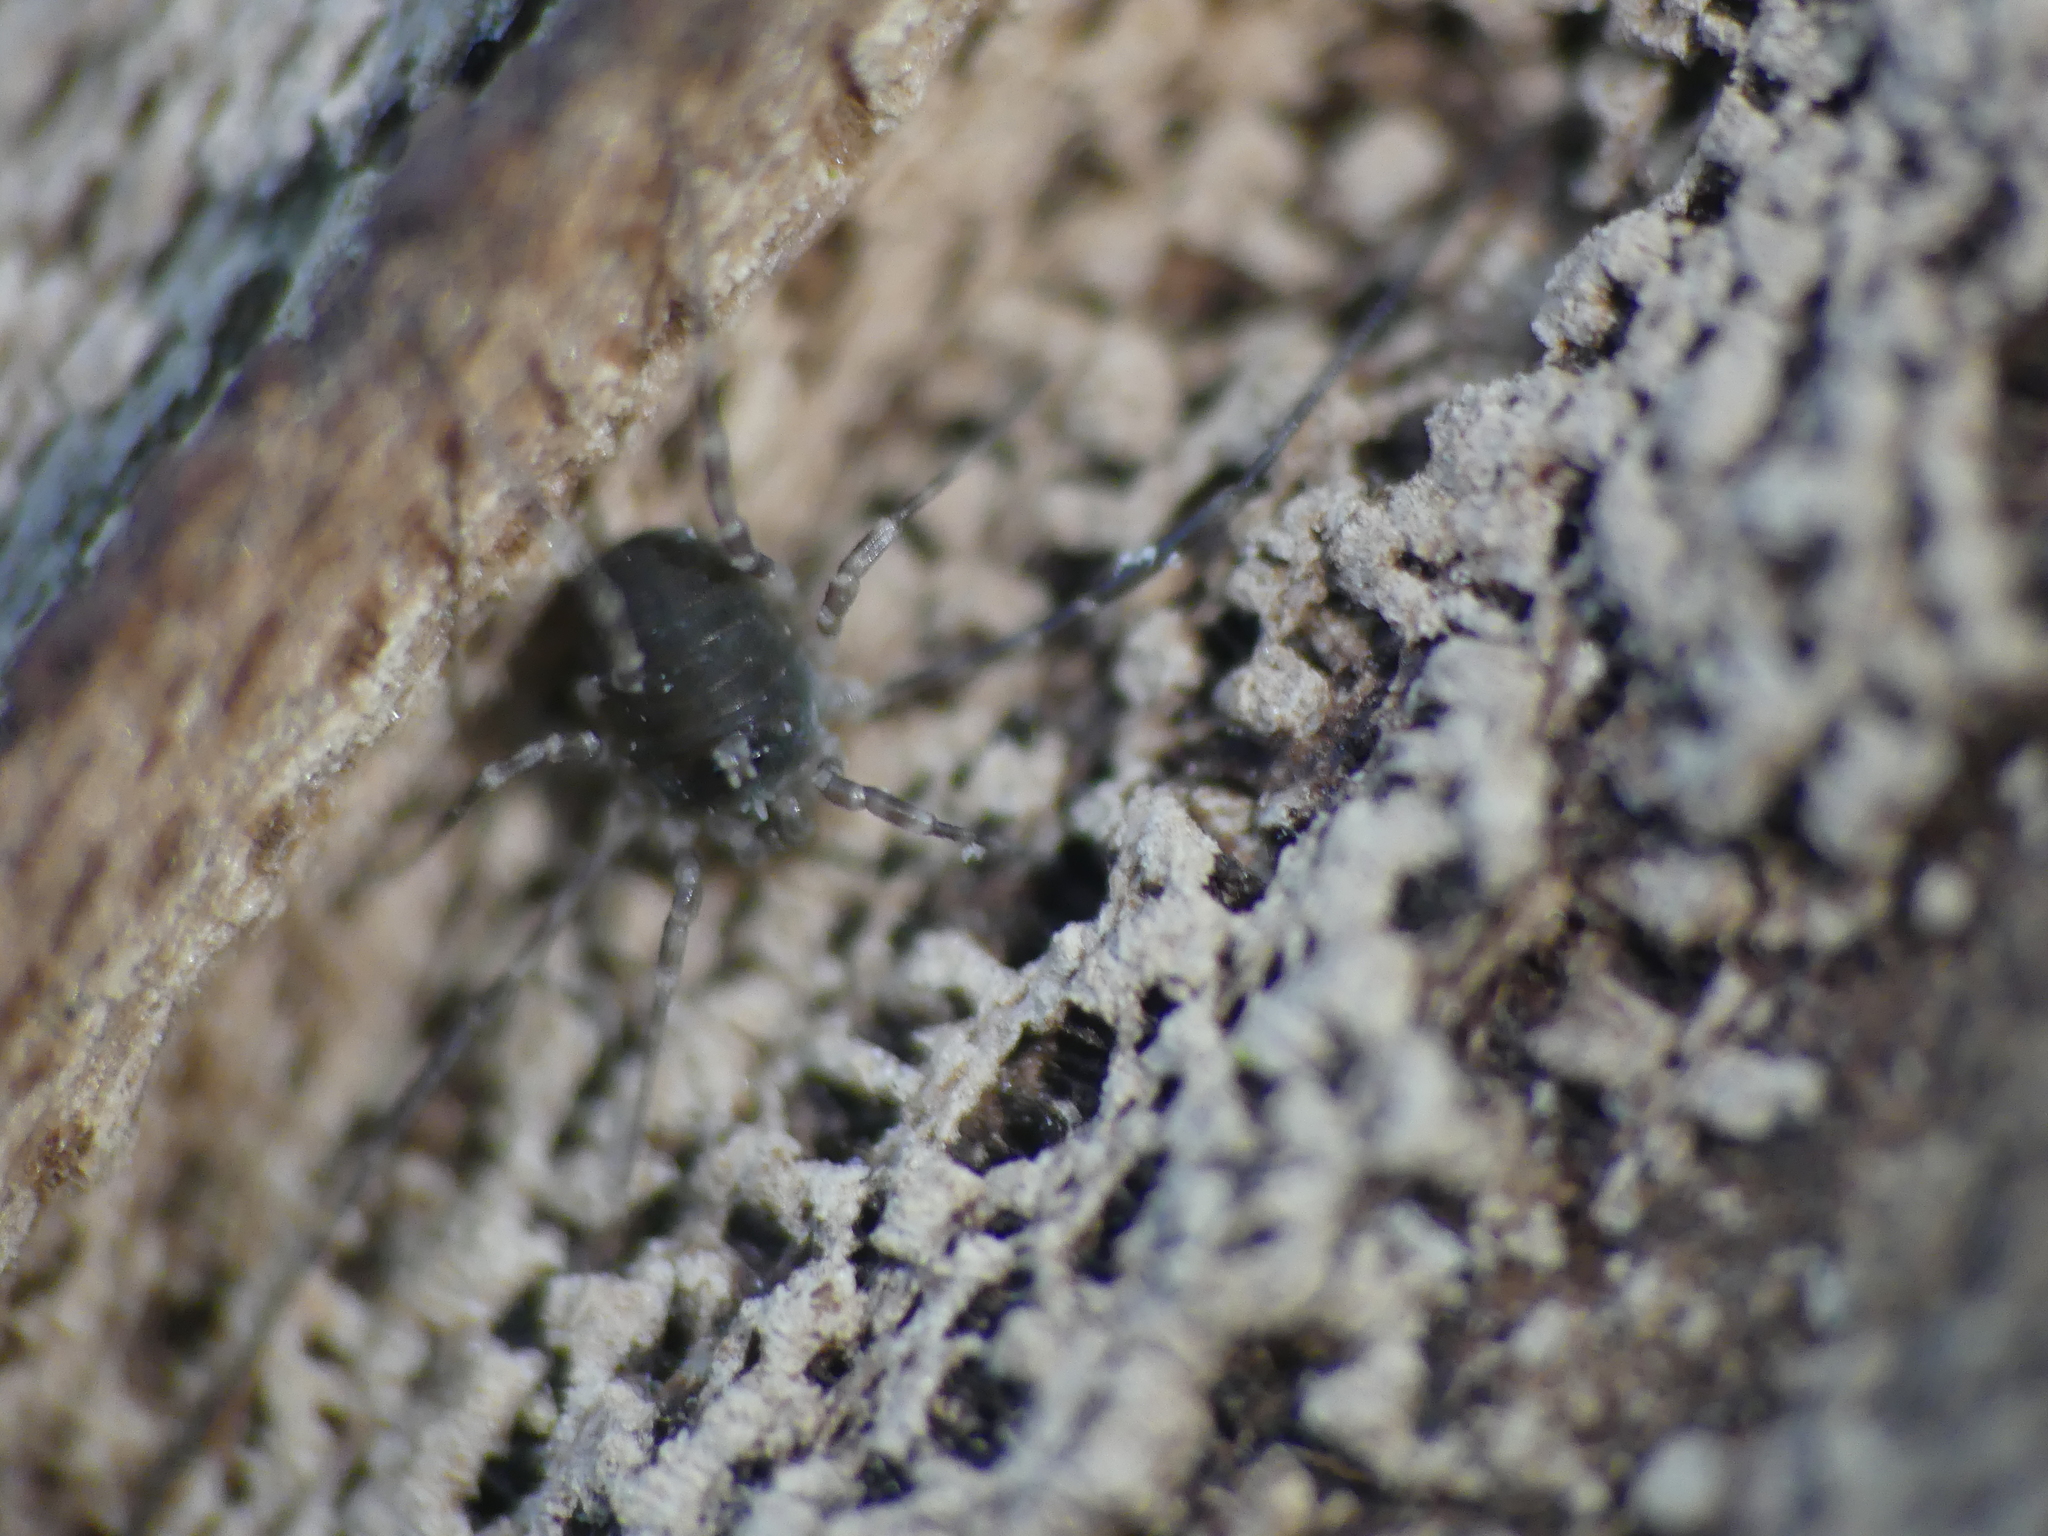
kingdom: Animalia
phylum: Arthropoda
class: Arachnida
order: Opiliones
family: Phalangiidae
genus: Lacinius
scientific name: Lacinius dentiger
